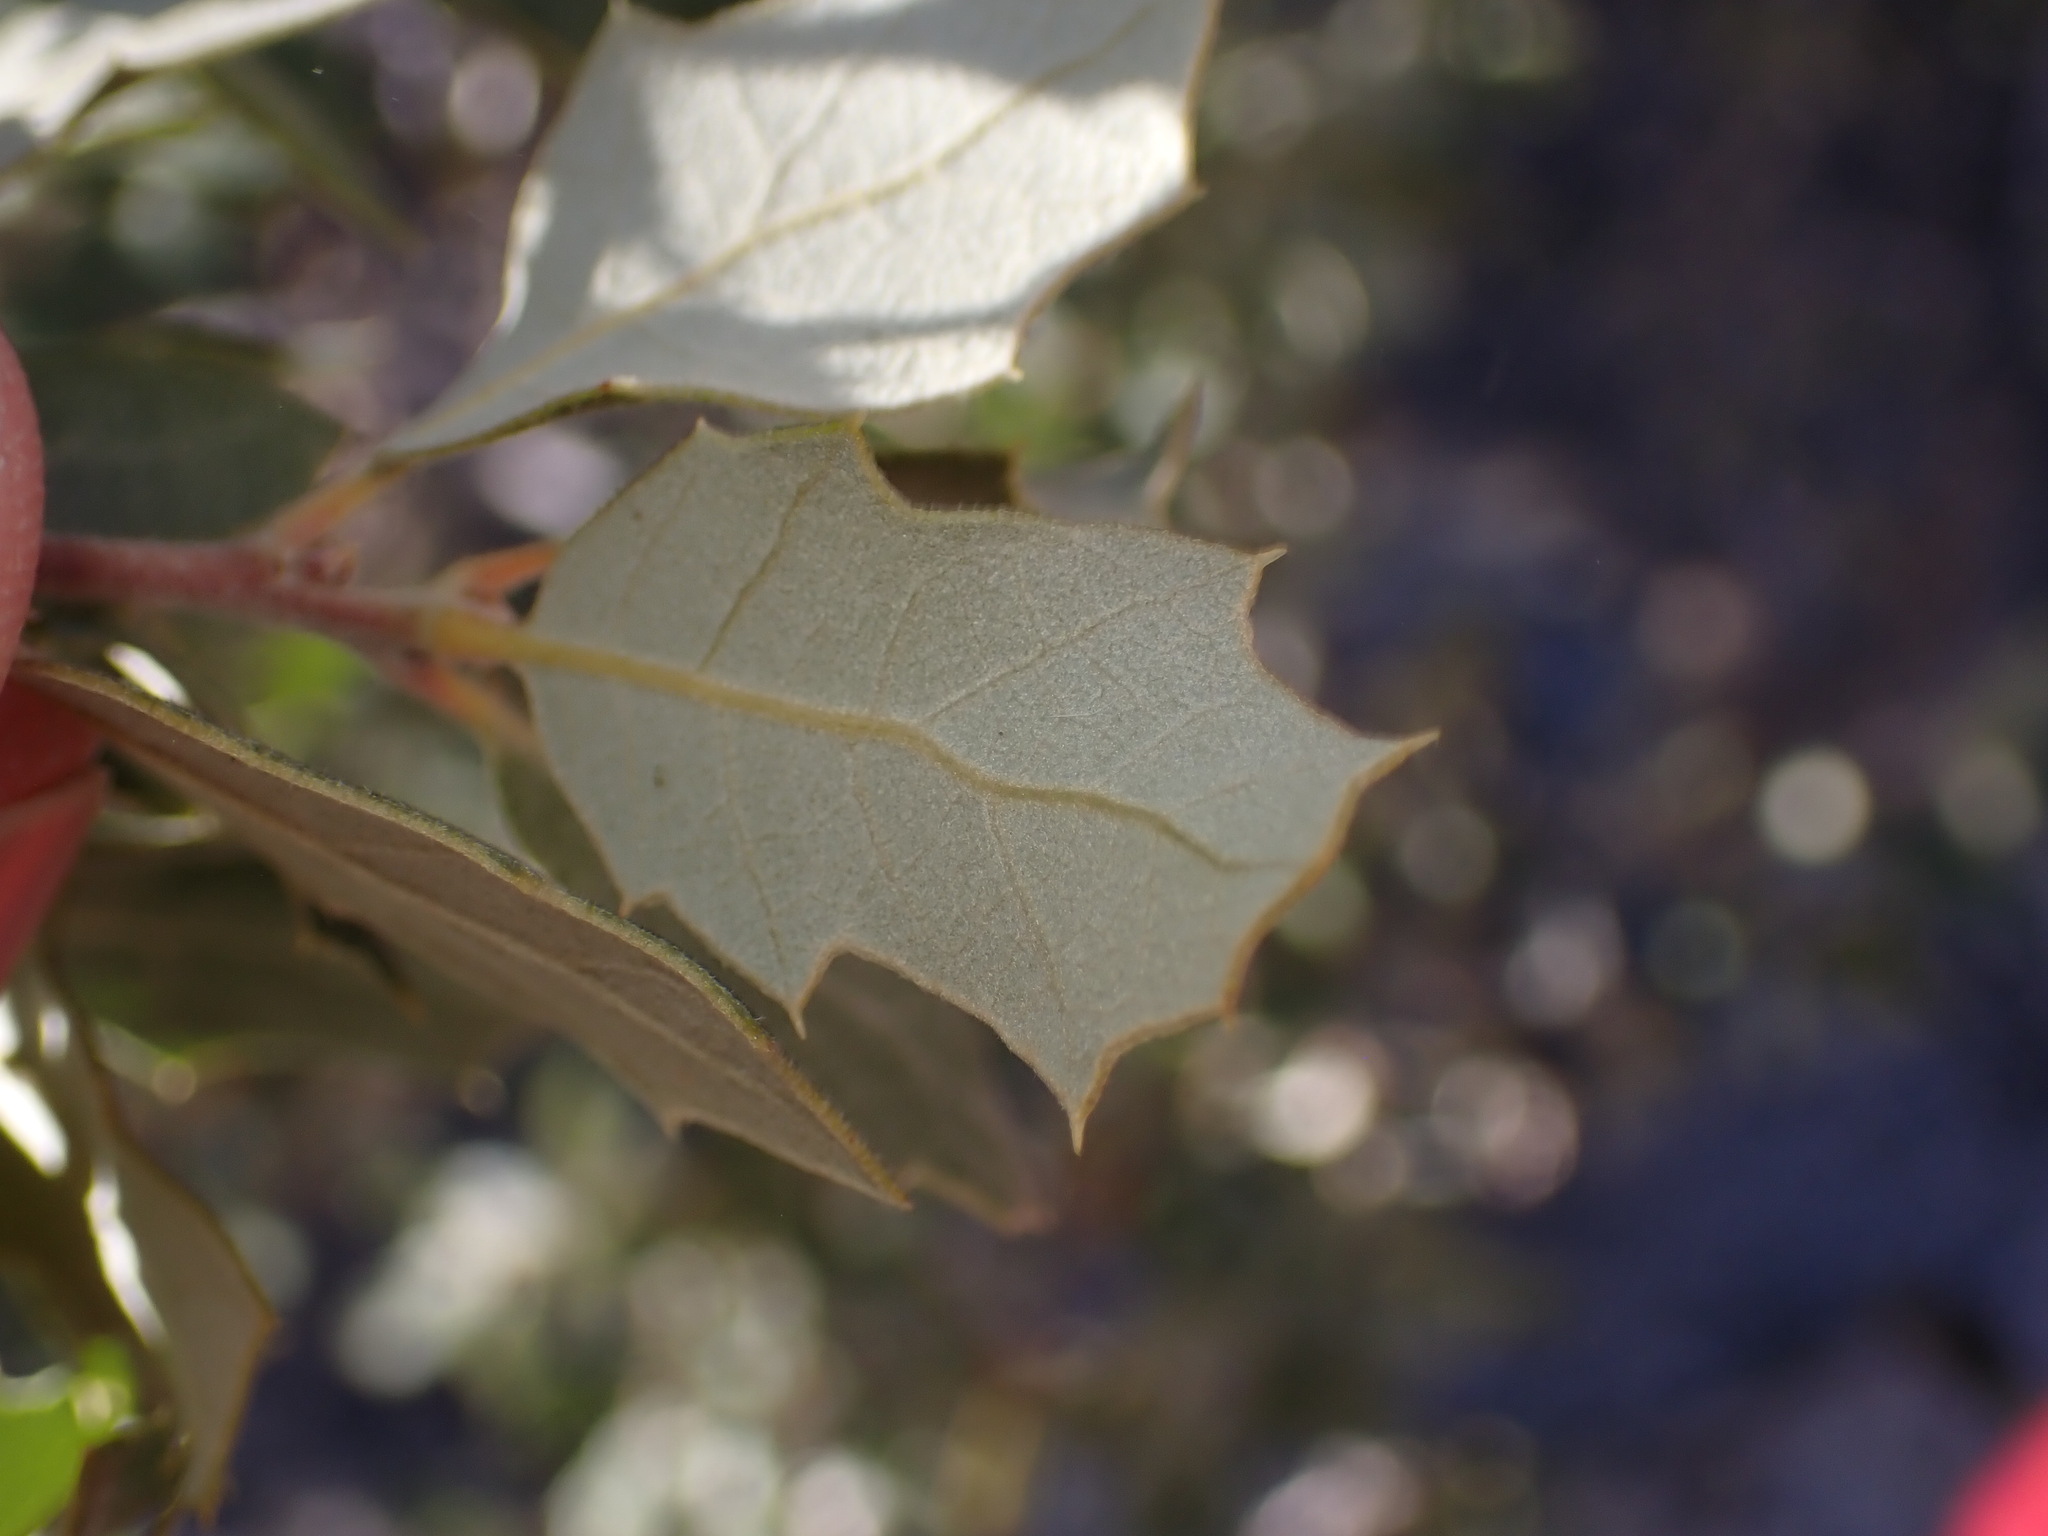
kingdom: Plantae
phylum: Tracheophyta
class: Magnoliopsida
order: Fagales
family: Fagaceae
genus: Quercus
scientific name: Quercus cornelius-mulleri
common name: Muller oak
